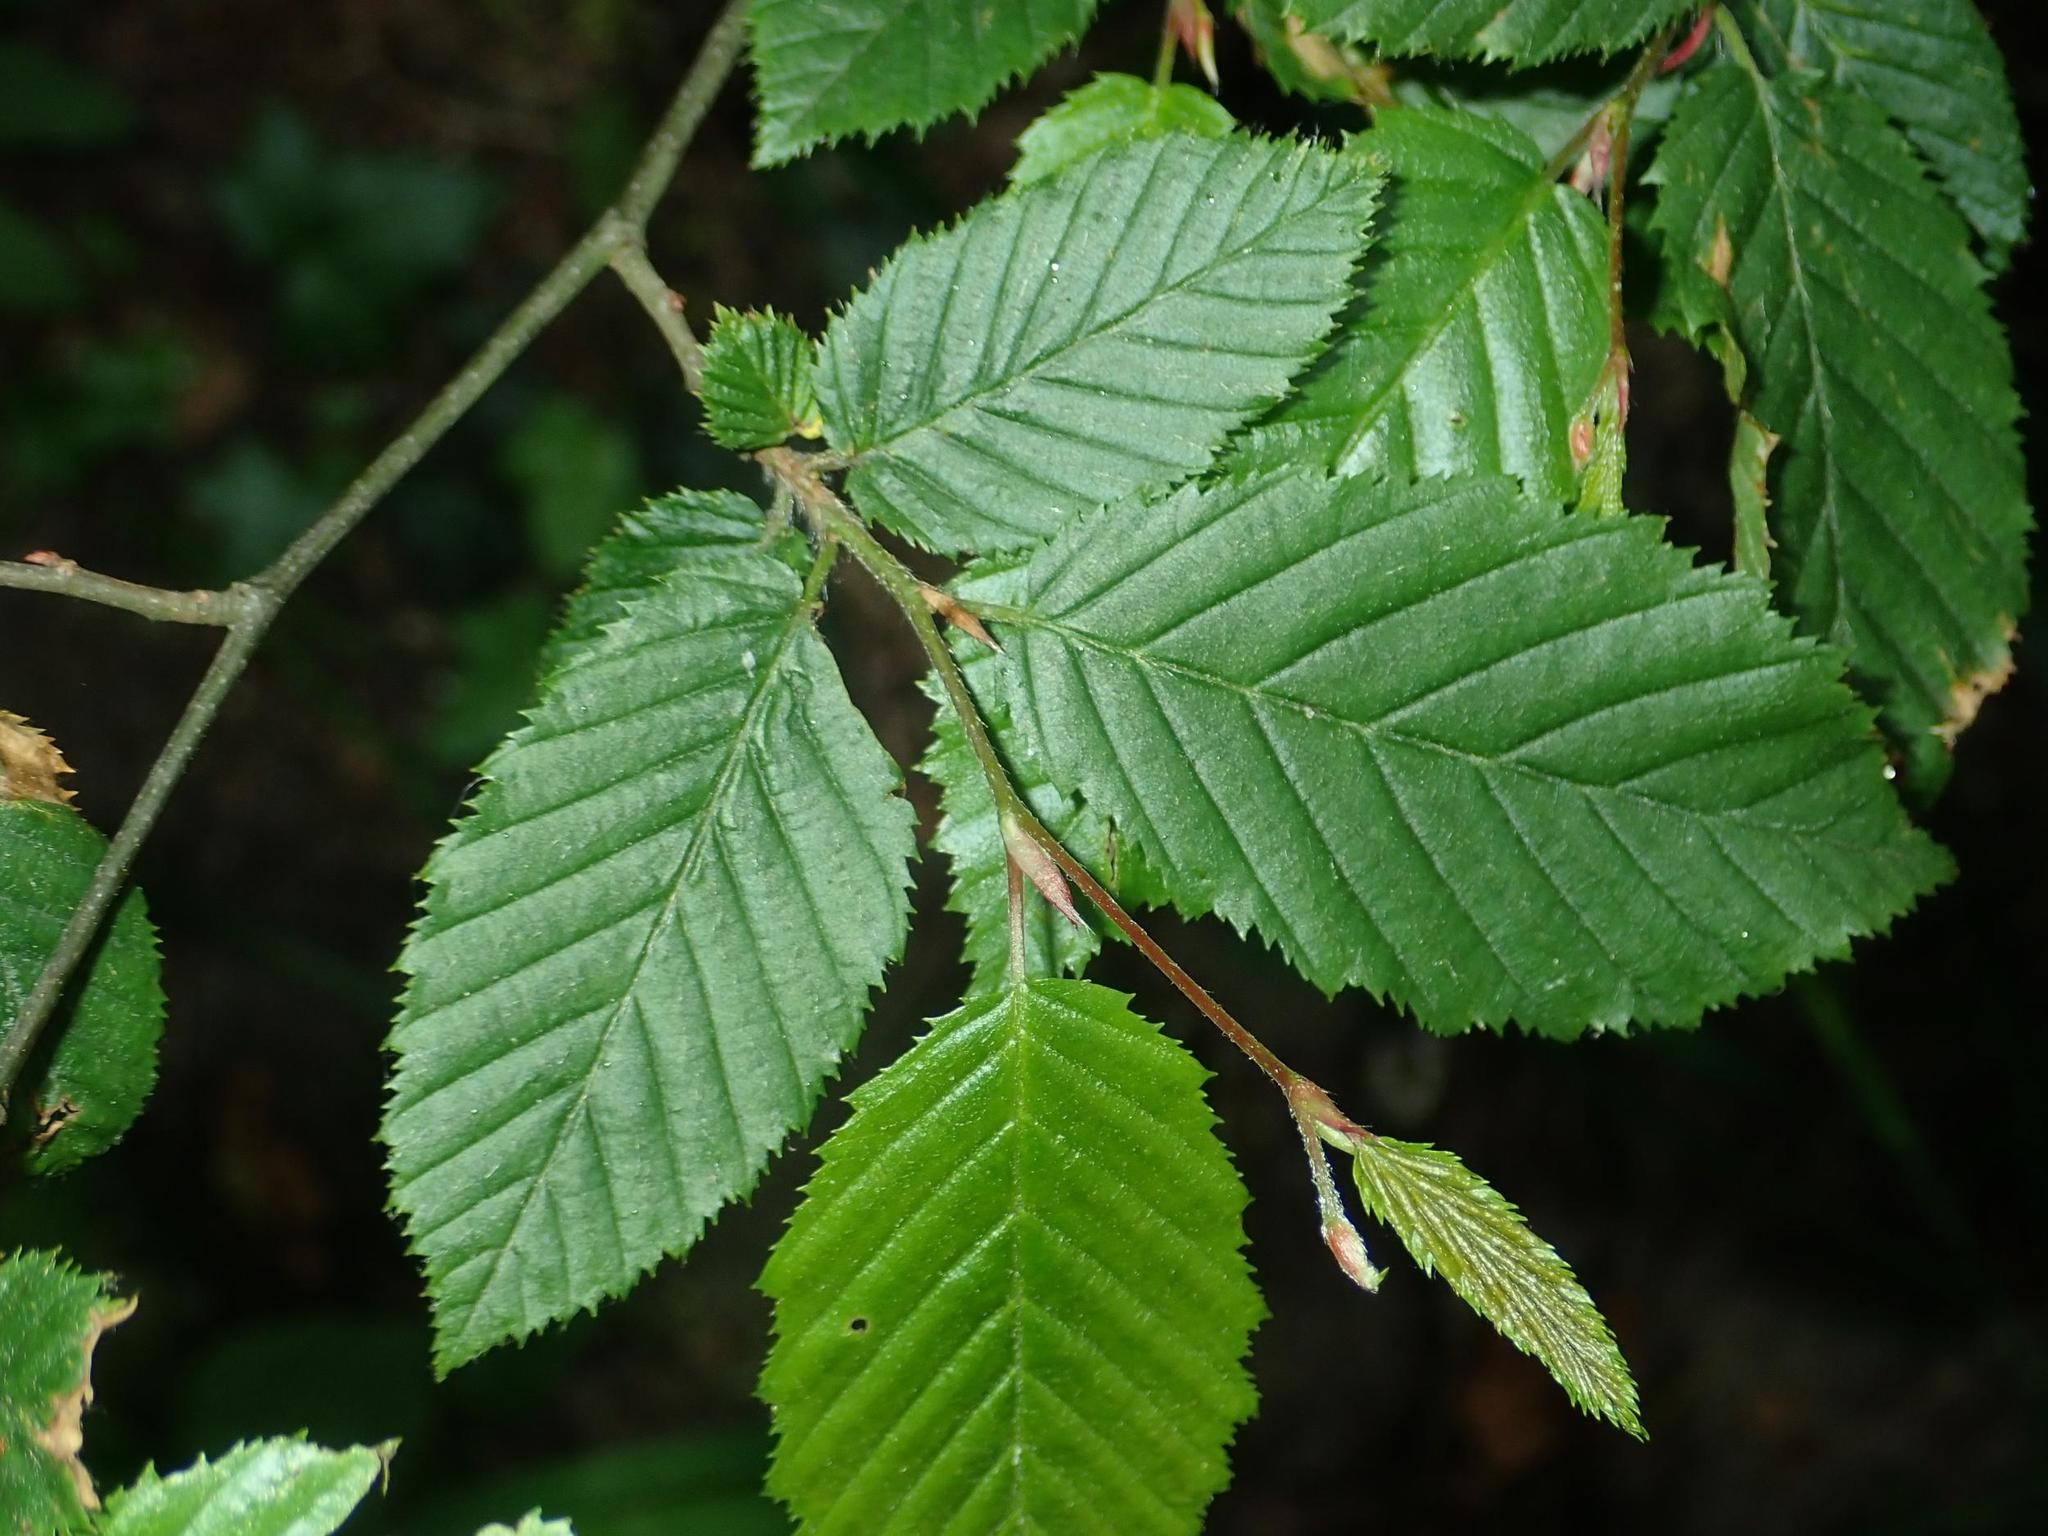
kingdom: Plantae
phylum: Tracheophyta
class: Magnoliopsida
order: Fagales
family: Betulaceae
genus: Carpinus
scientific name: Carpinus betulus
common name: Hornbeam
